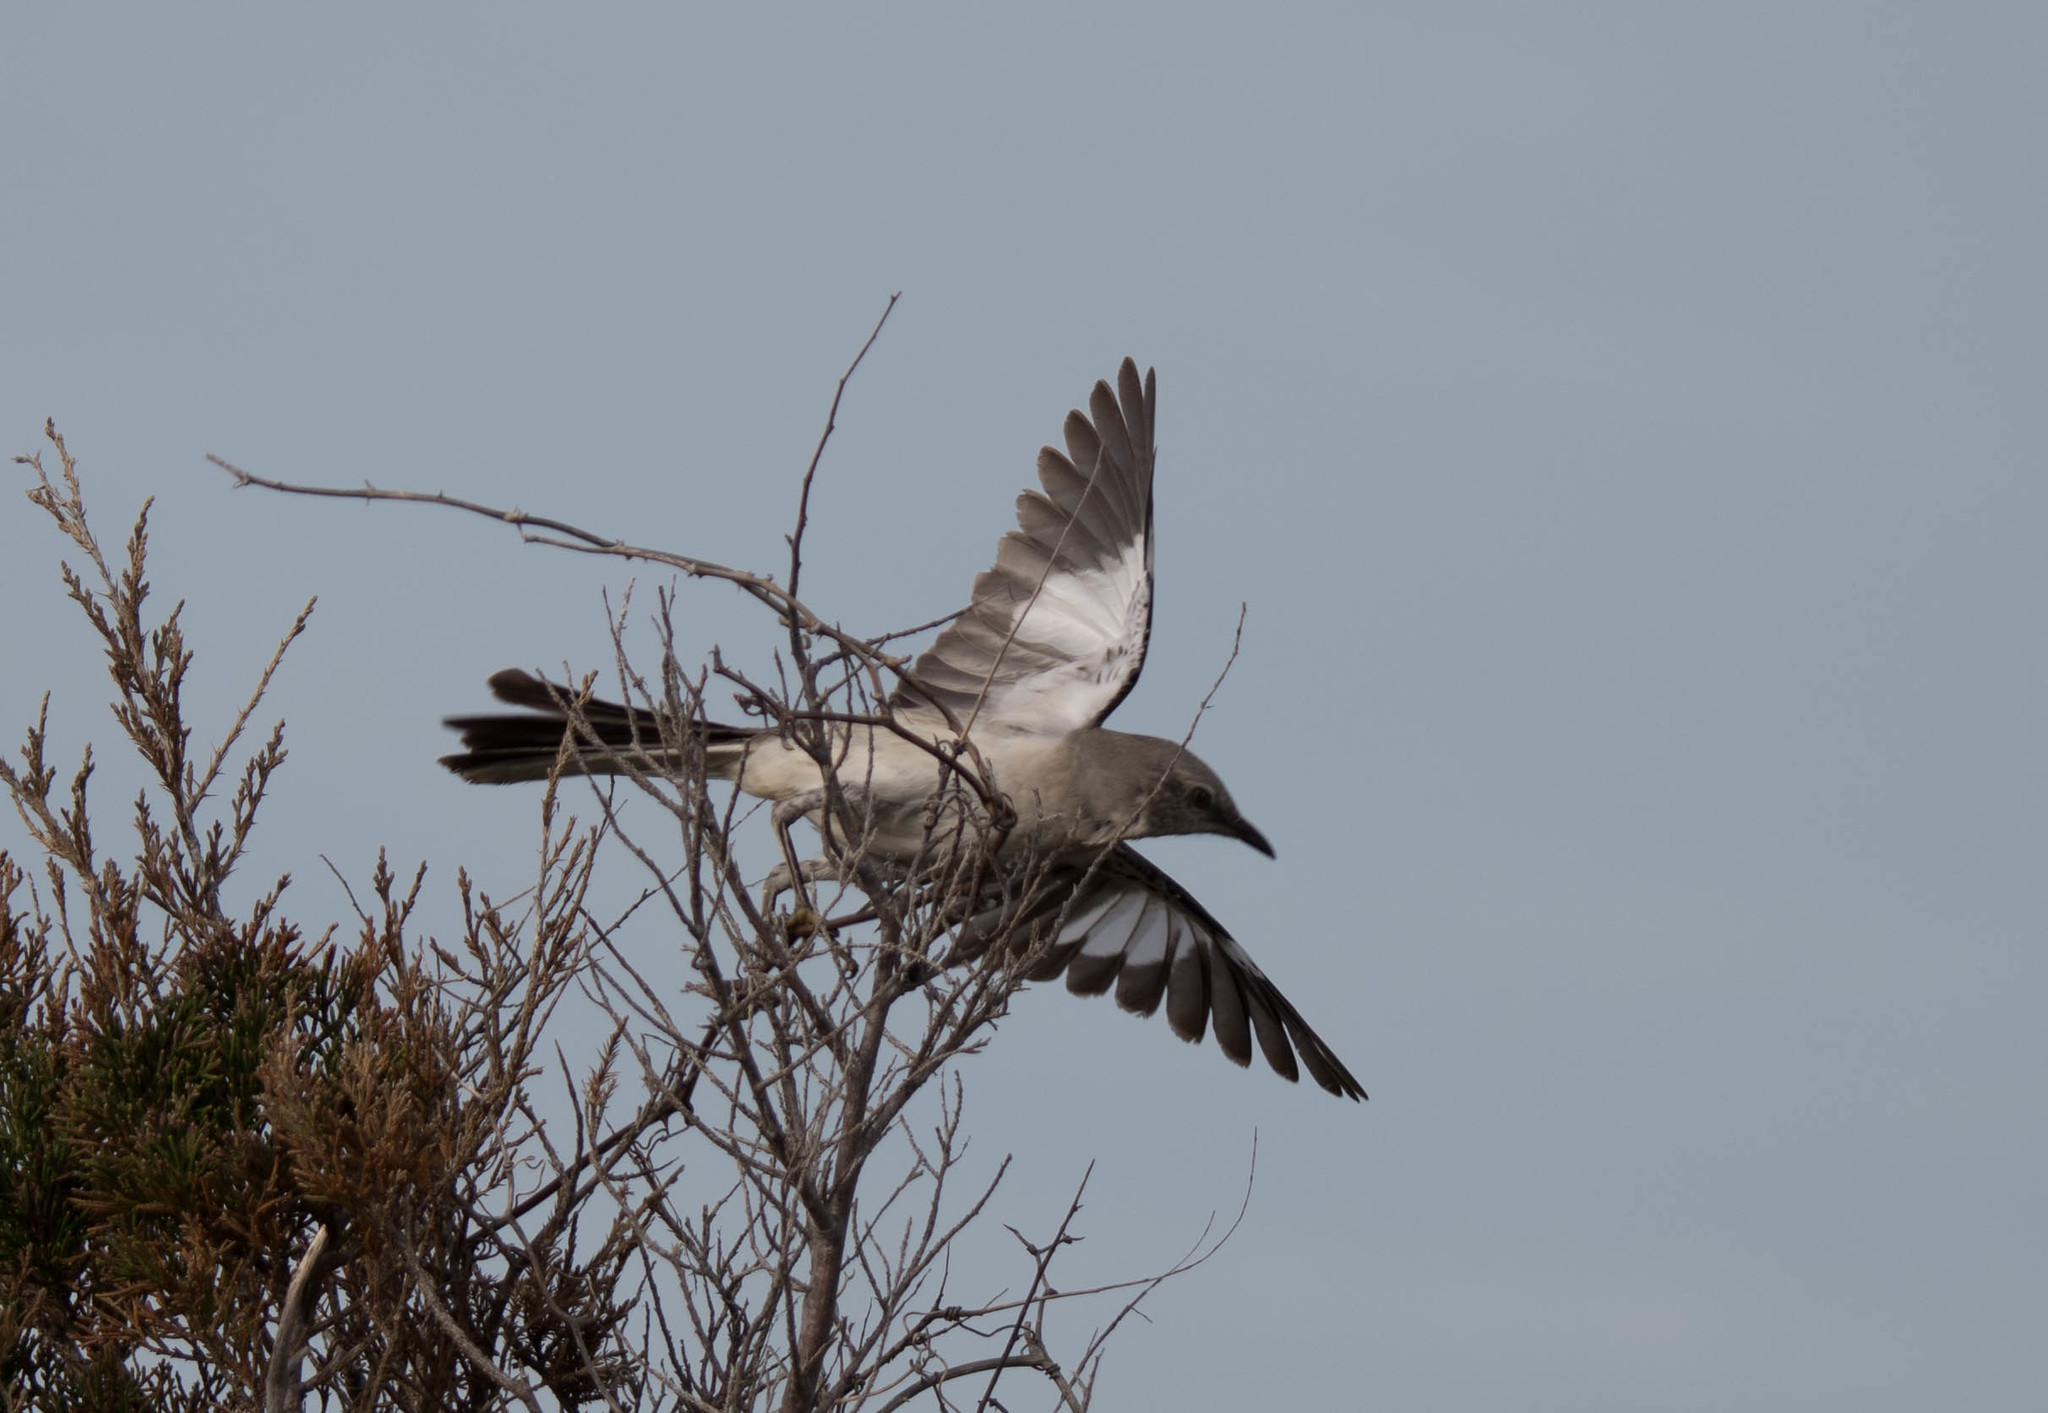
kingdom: Animalia
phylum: Chordata
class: Aves
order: Passeriformes
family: Mimidae
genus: Mimus
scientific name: Mimus polyglottos
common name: Northern mockingbird
